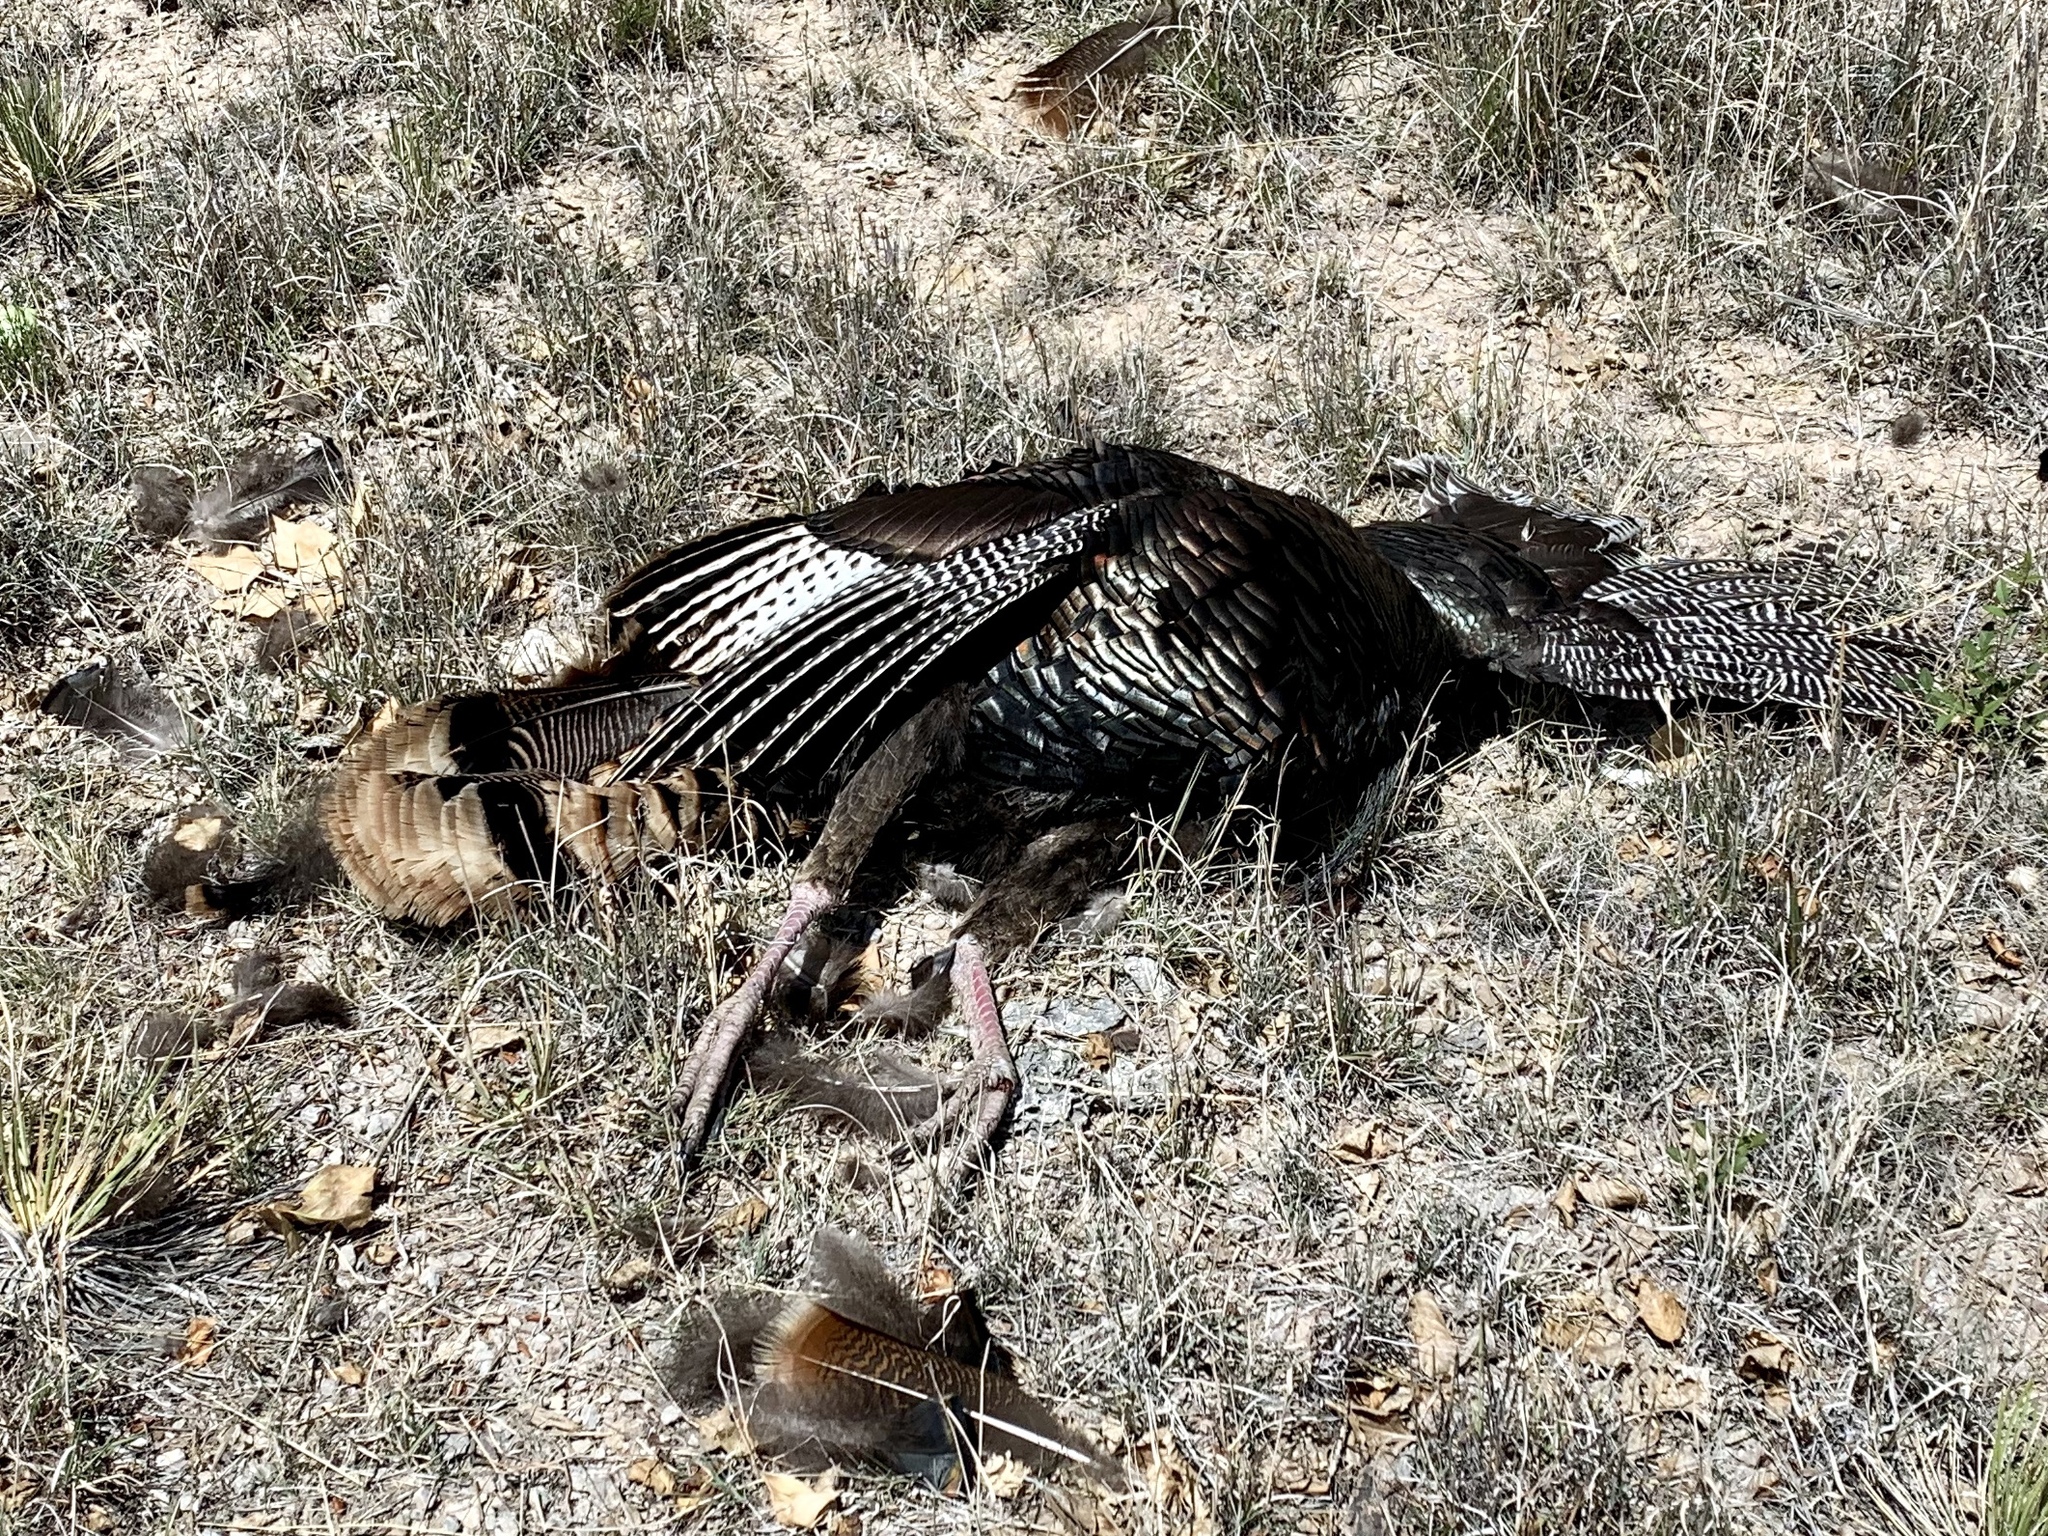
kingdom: Animalia
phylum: Chordata
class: Aves
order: Galliformes
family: Phasianidae
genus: Meleagris
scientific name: Meleagris gallopavo
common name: Wild turkey
